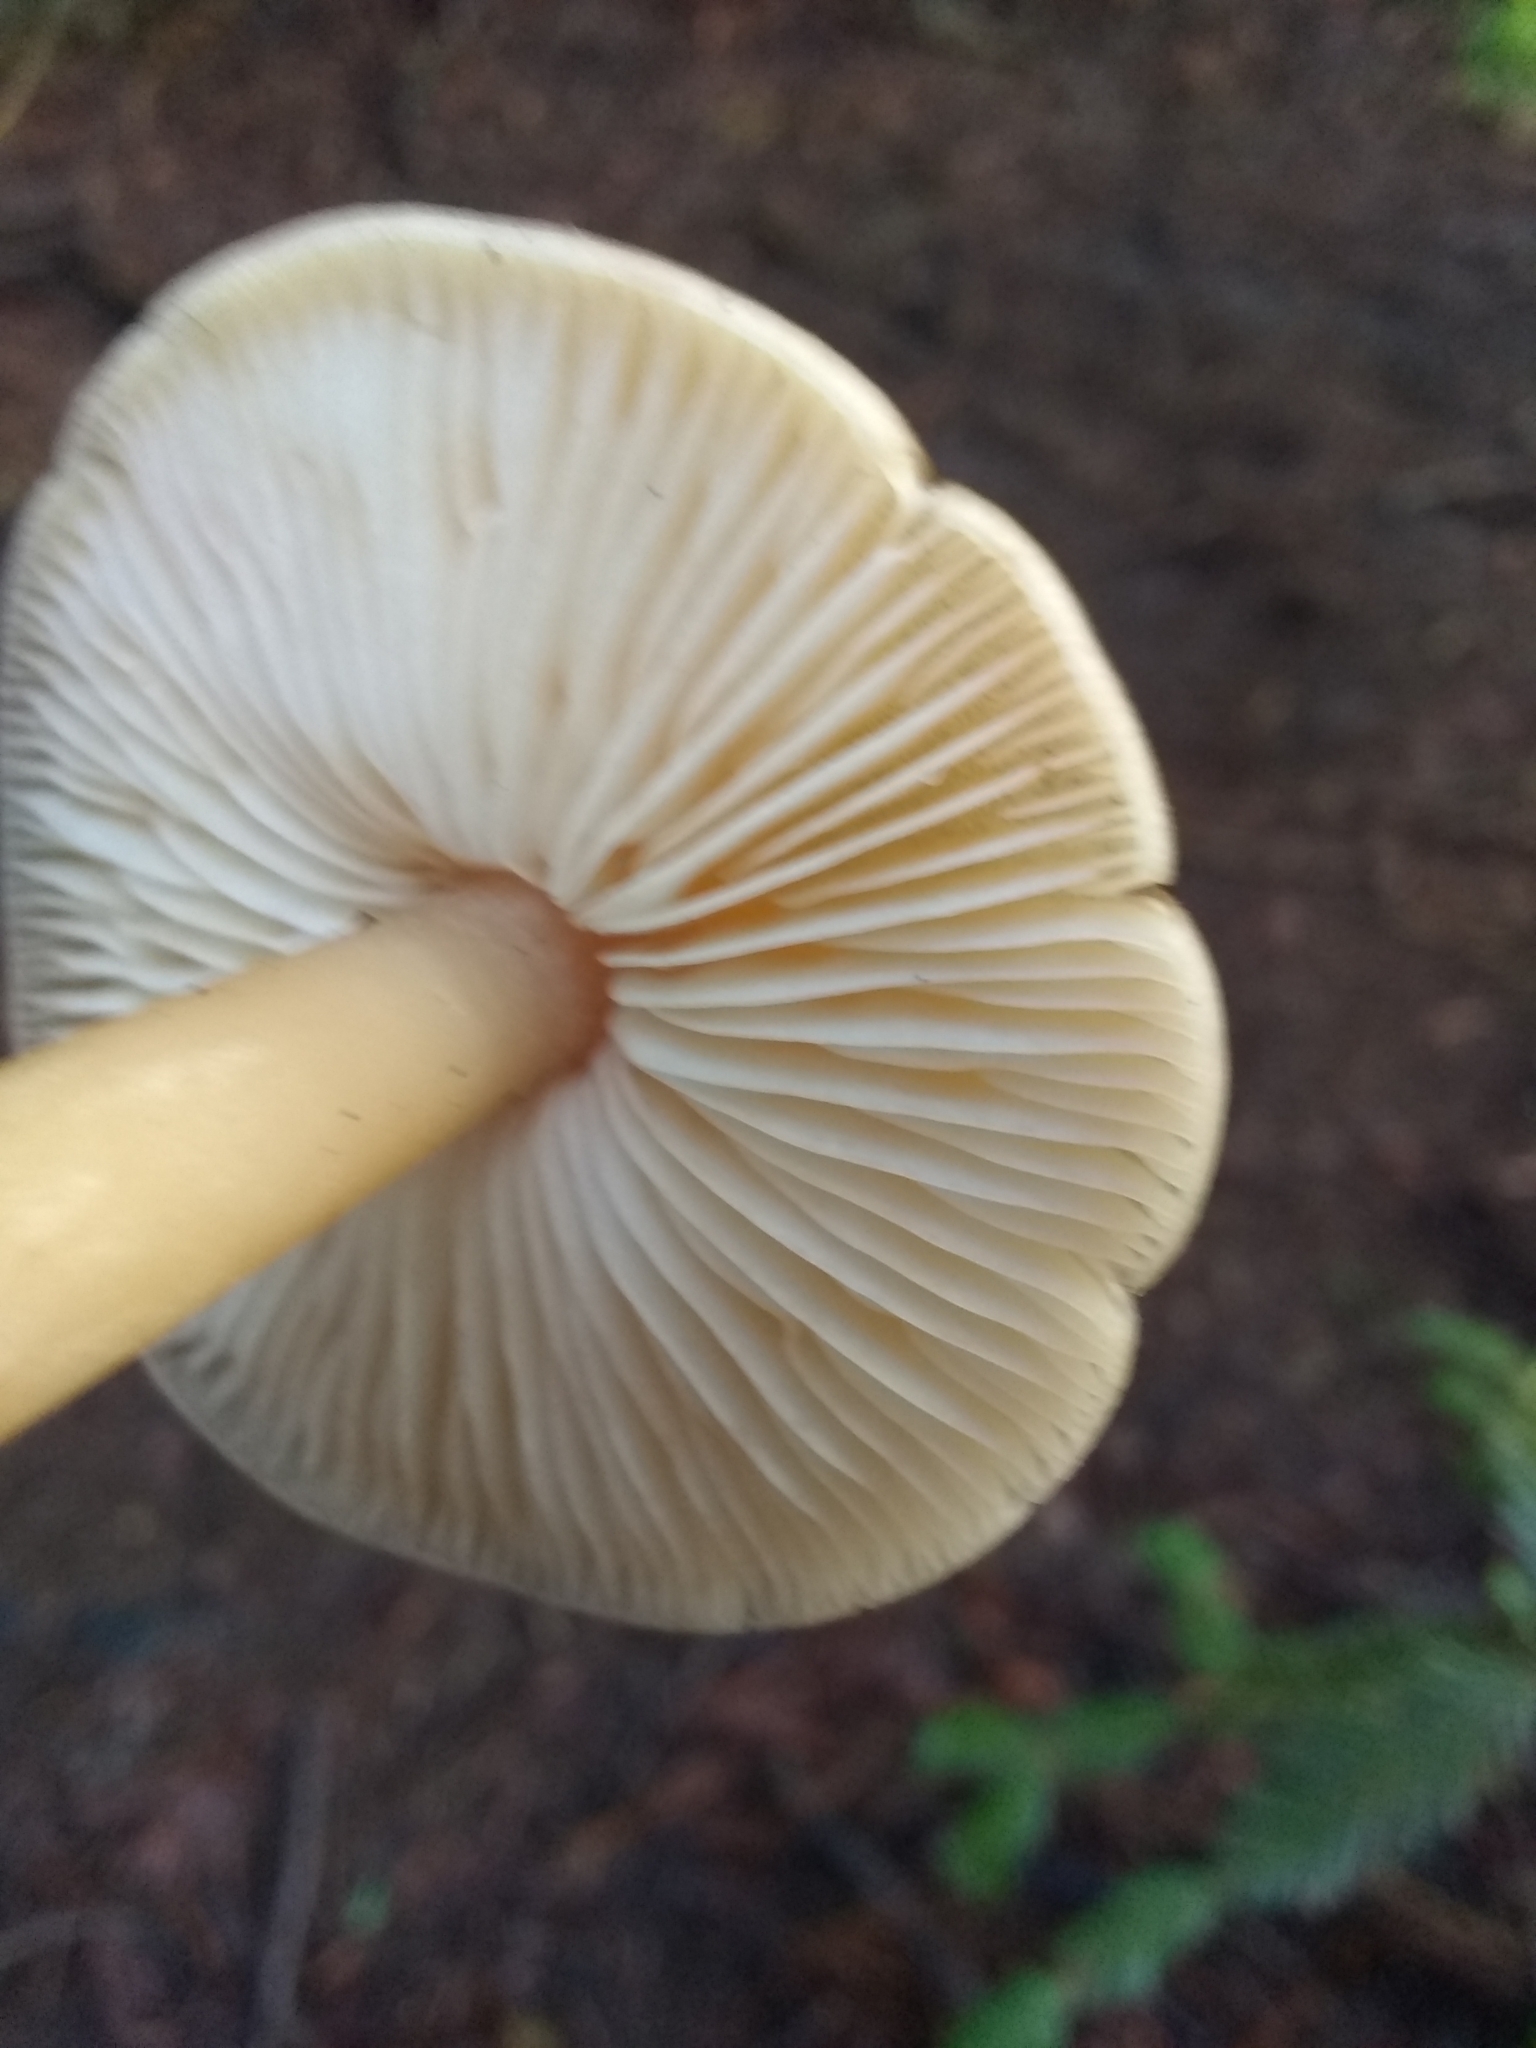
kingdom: Fungi
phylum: Basidiomycota
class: Agaricomycetes
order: Agaricales
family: Tricholomataceae
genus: Caulorhiza
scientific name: Caulorhiza umbonata
